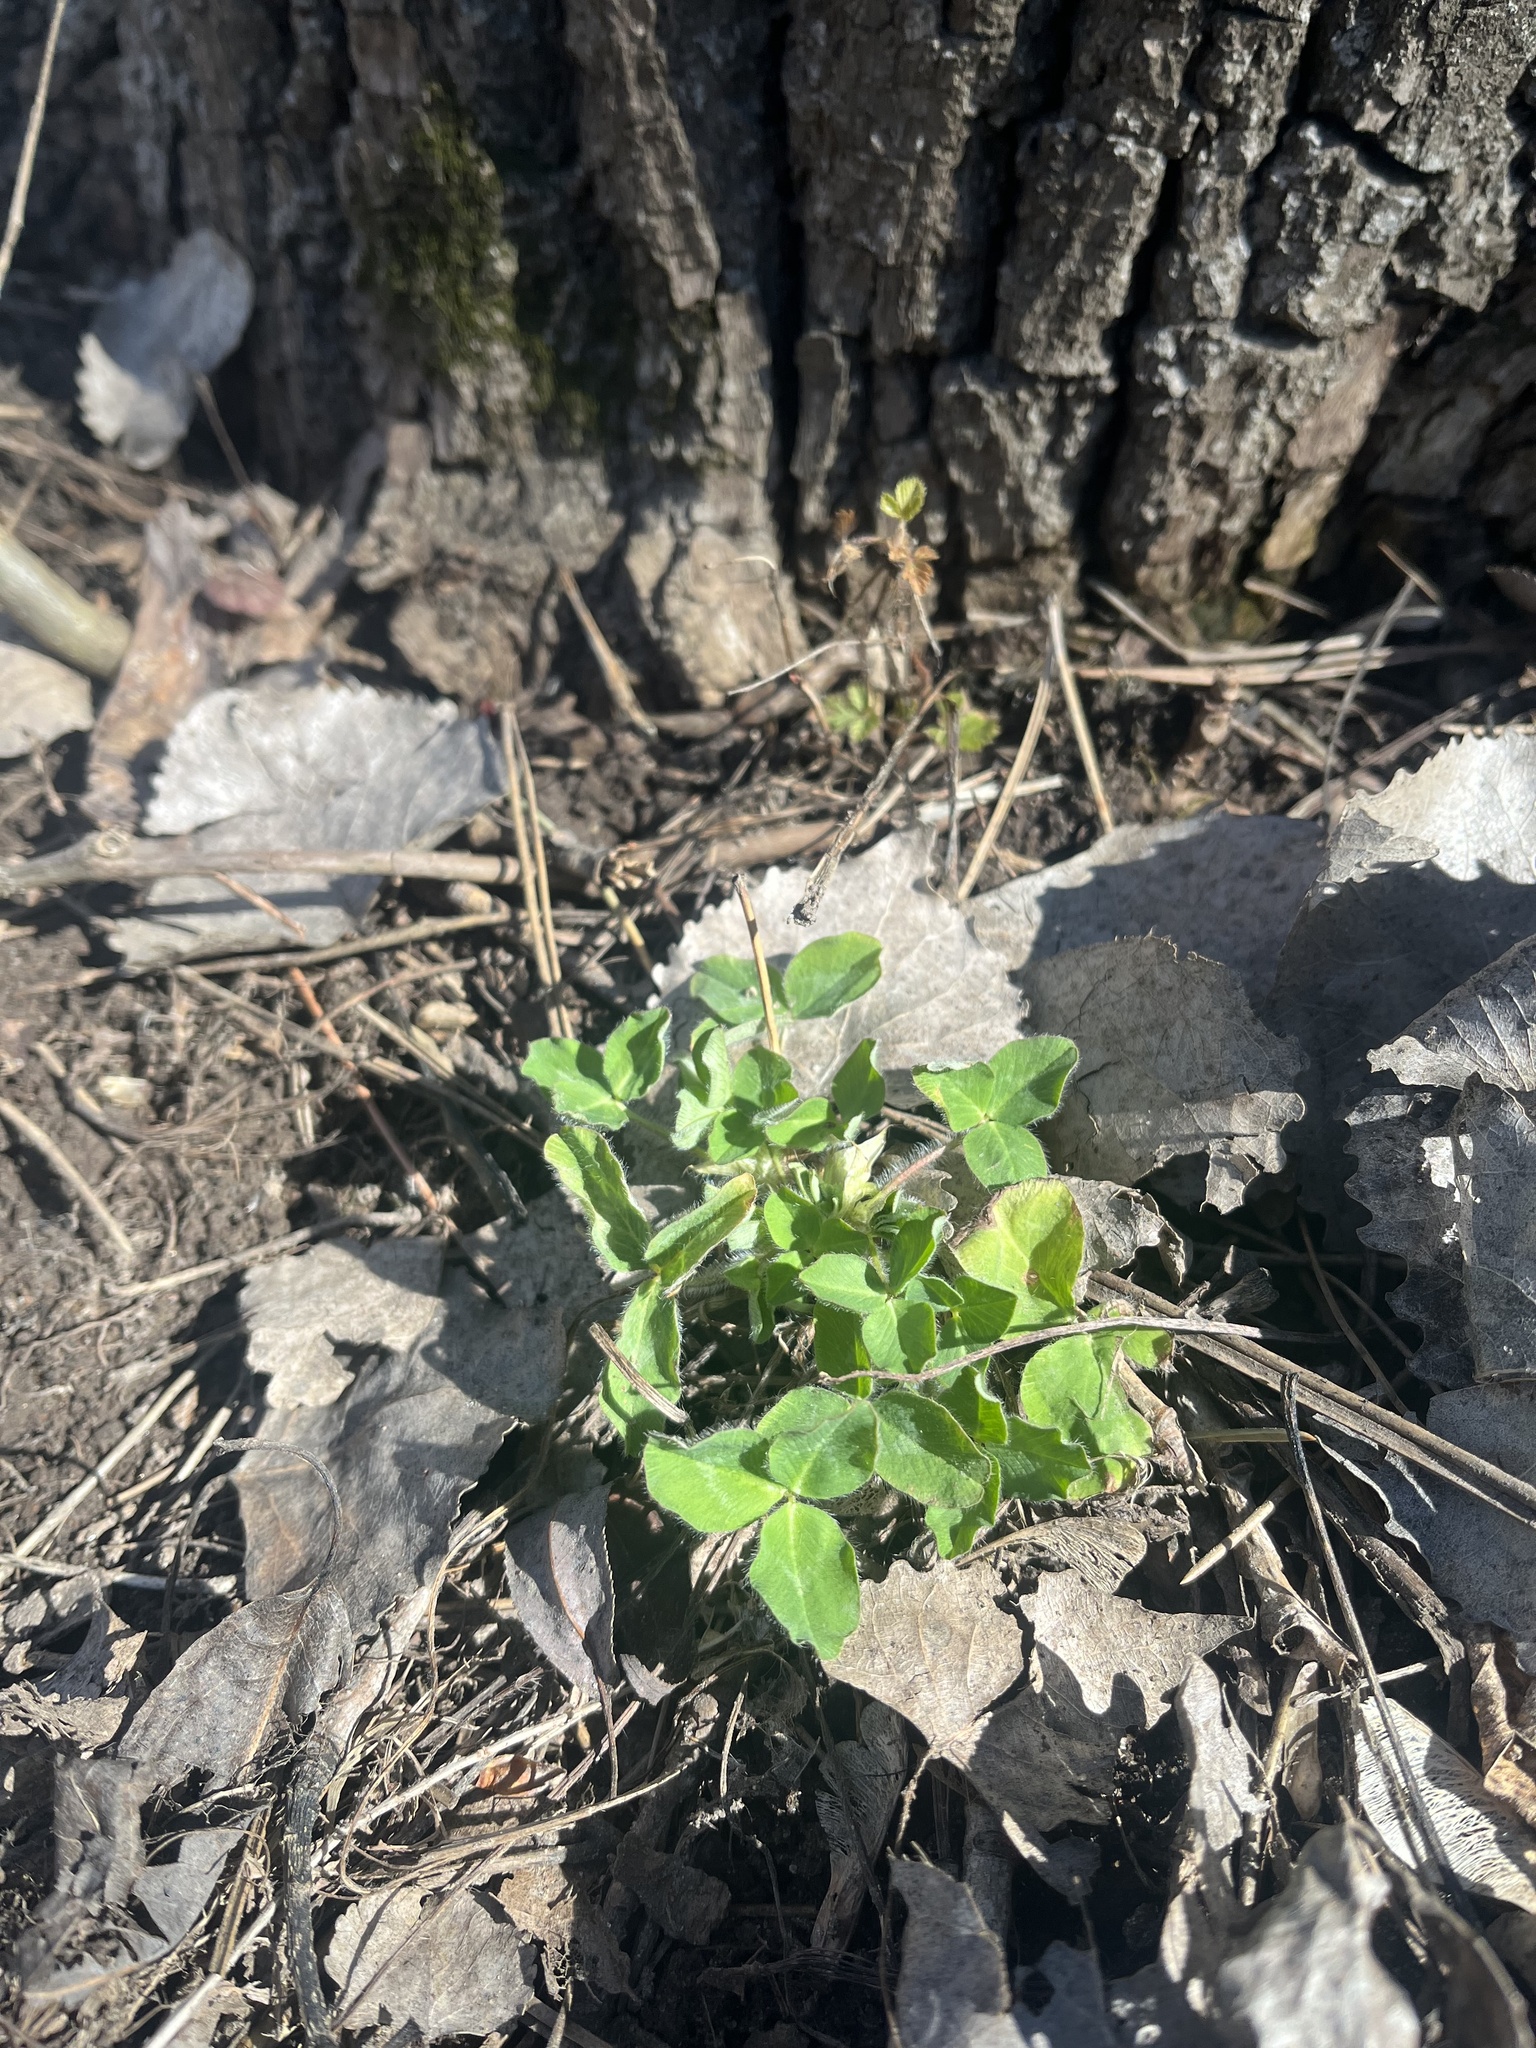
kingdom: Plantae
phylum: Tracheophyta
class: Magnoliopsida
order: Fabales
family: Fabaceae
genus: Trifolium
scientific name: Trifolium pratense
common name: Red clover
